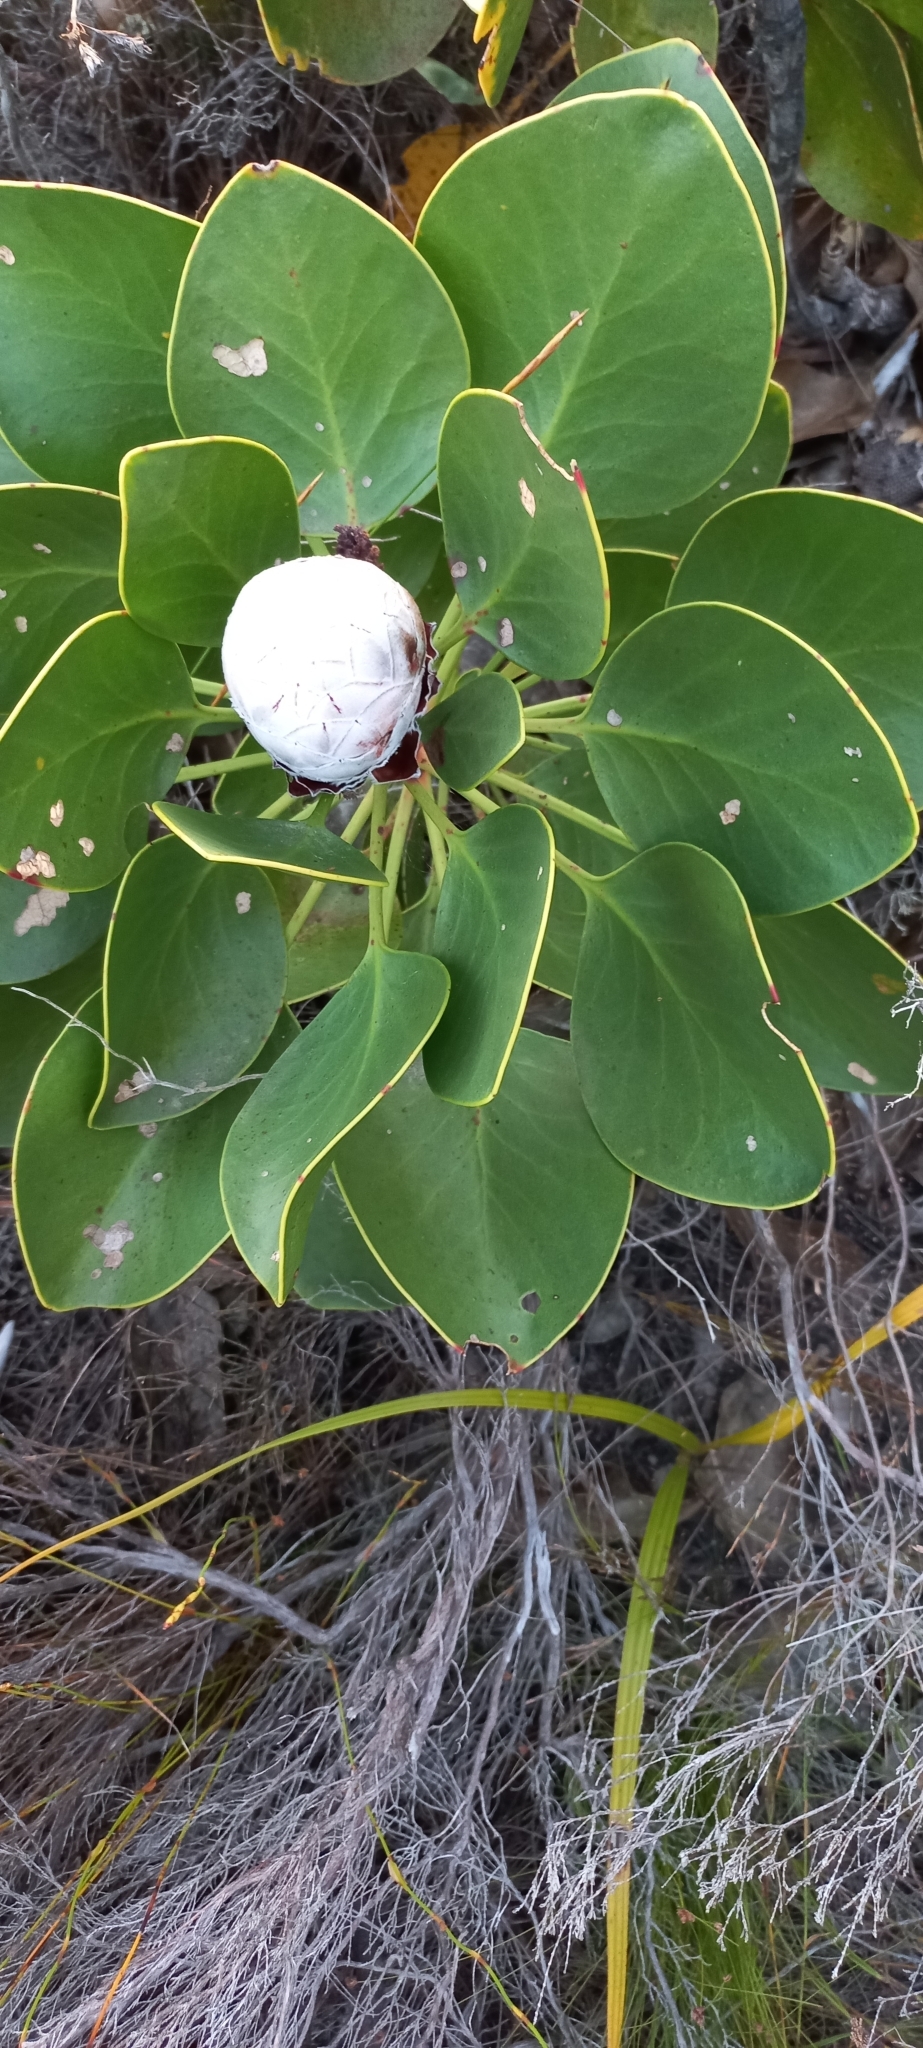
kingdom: Plantae
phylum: Tracheophyta
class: Magnoliopsida
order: Proteales
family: Proteaceae
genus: Protea
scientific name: Protea cynaroides
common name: King protea
